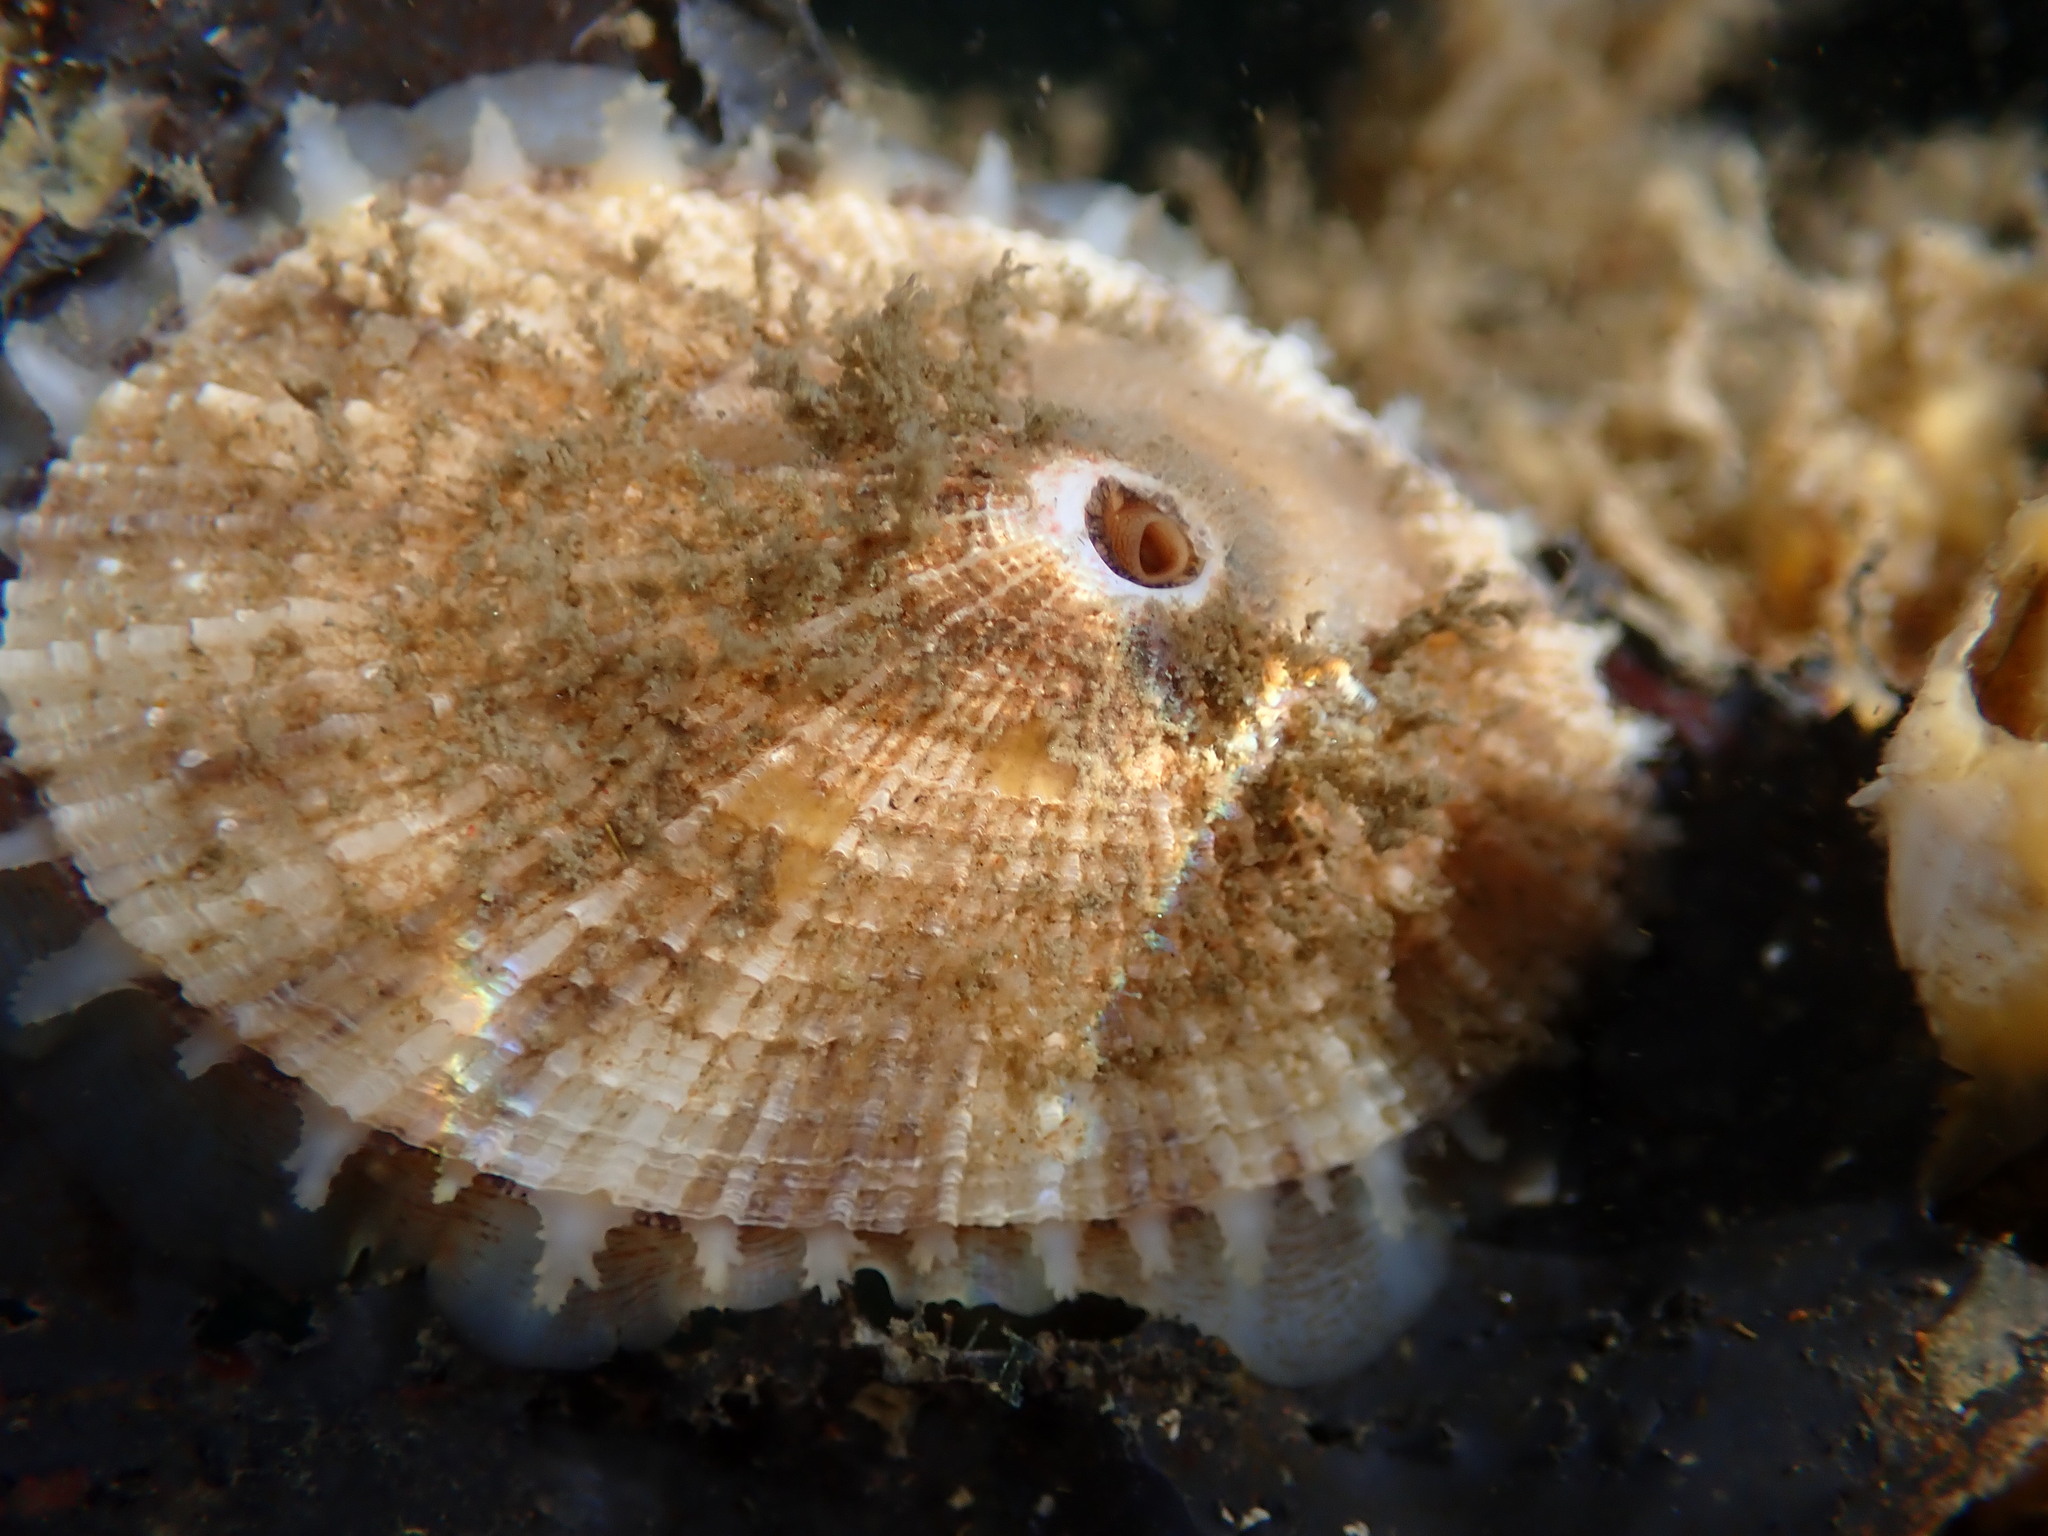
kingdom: Animalia
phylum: Mollusca
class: Gastropoda
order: Lepetellida
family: Fissurellidae
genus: Diodora
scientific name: Diodora aspera
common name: Rough keyhole limpet
